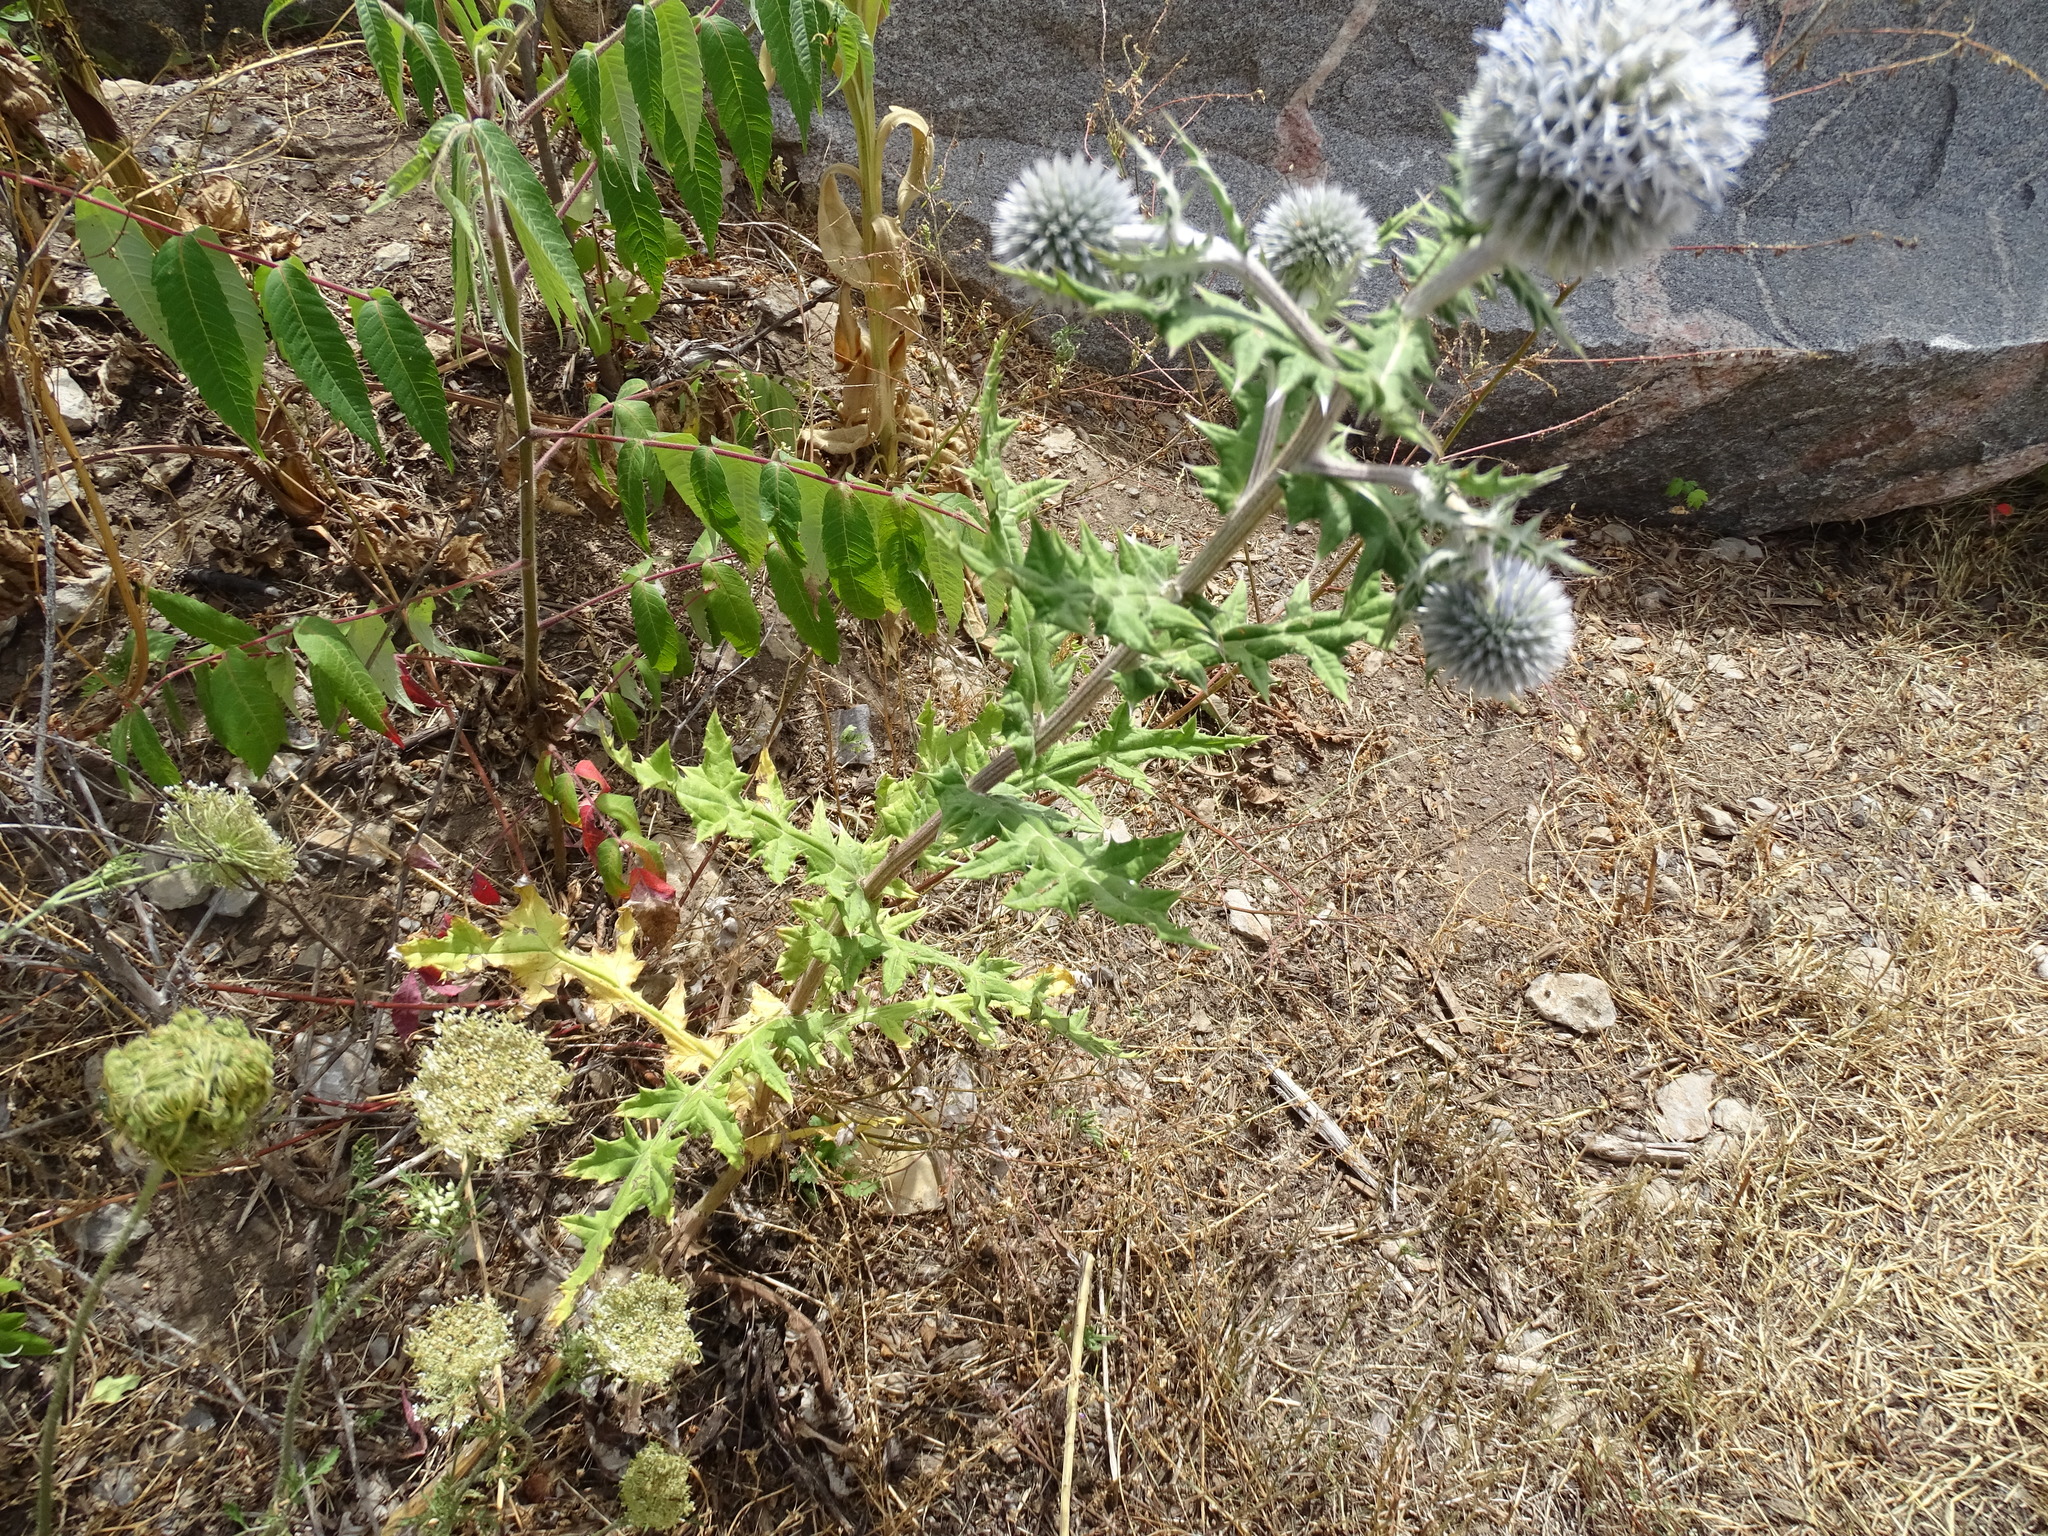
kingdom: Plantae
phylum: Tracheophyta
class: Magnoliopsida
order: Asterales
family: Asteraceae
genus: Echinops
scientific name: Echinops sphaerocephalus
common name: Glandular globe-thistle
